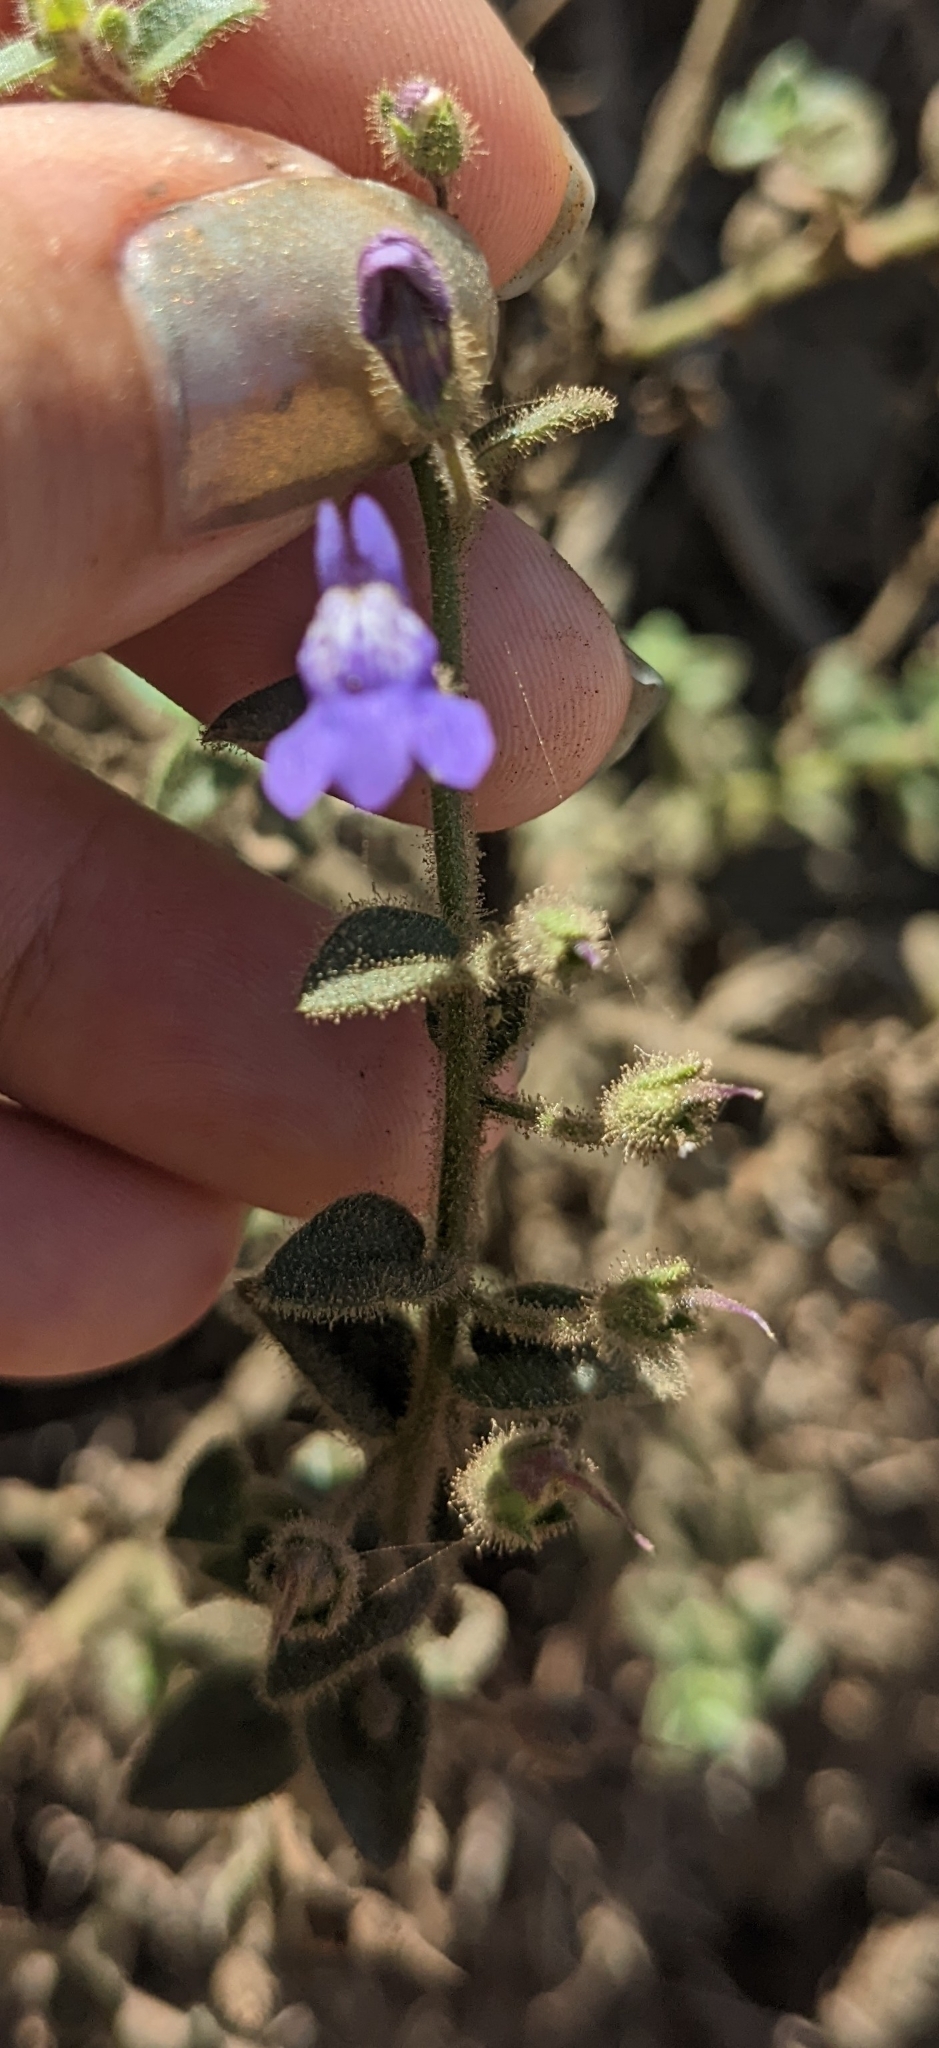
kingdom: Plantae
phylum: Tracheophyta
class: Magnoliopsida
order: Lamiales
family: Plantaginaceae
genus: Sairocarpus
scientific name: Sairocarpus nuttallianus
